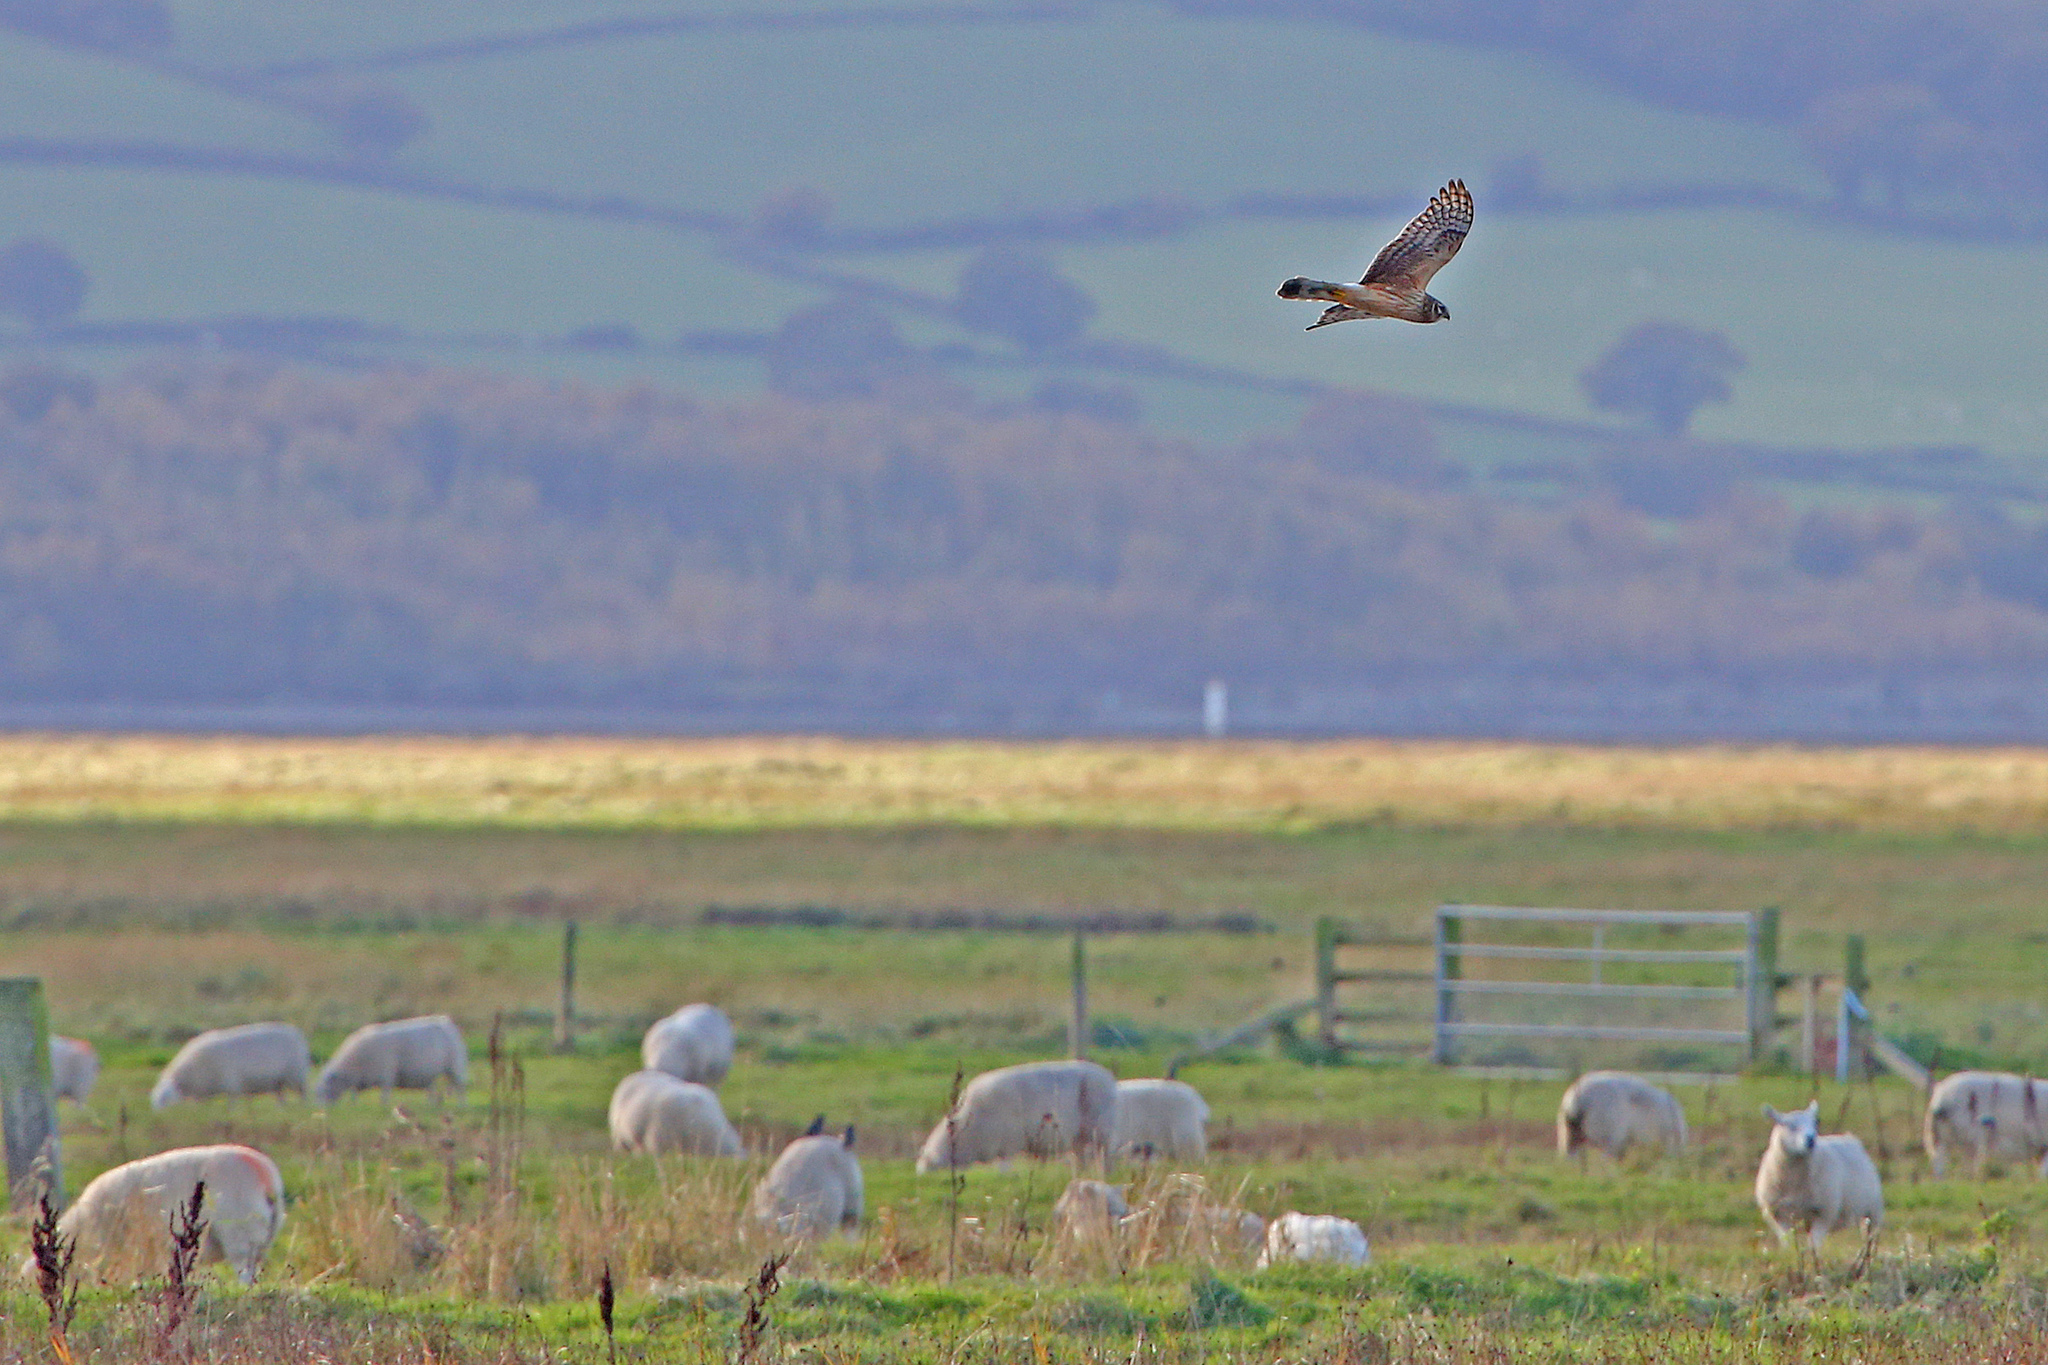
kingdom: Animalia
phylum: Chordata
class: Aves
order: Accipitriformes
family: Accipitridae
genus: Circus
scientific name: Circus cyaneus
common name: Hen harrier
